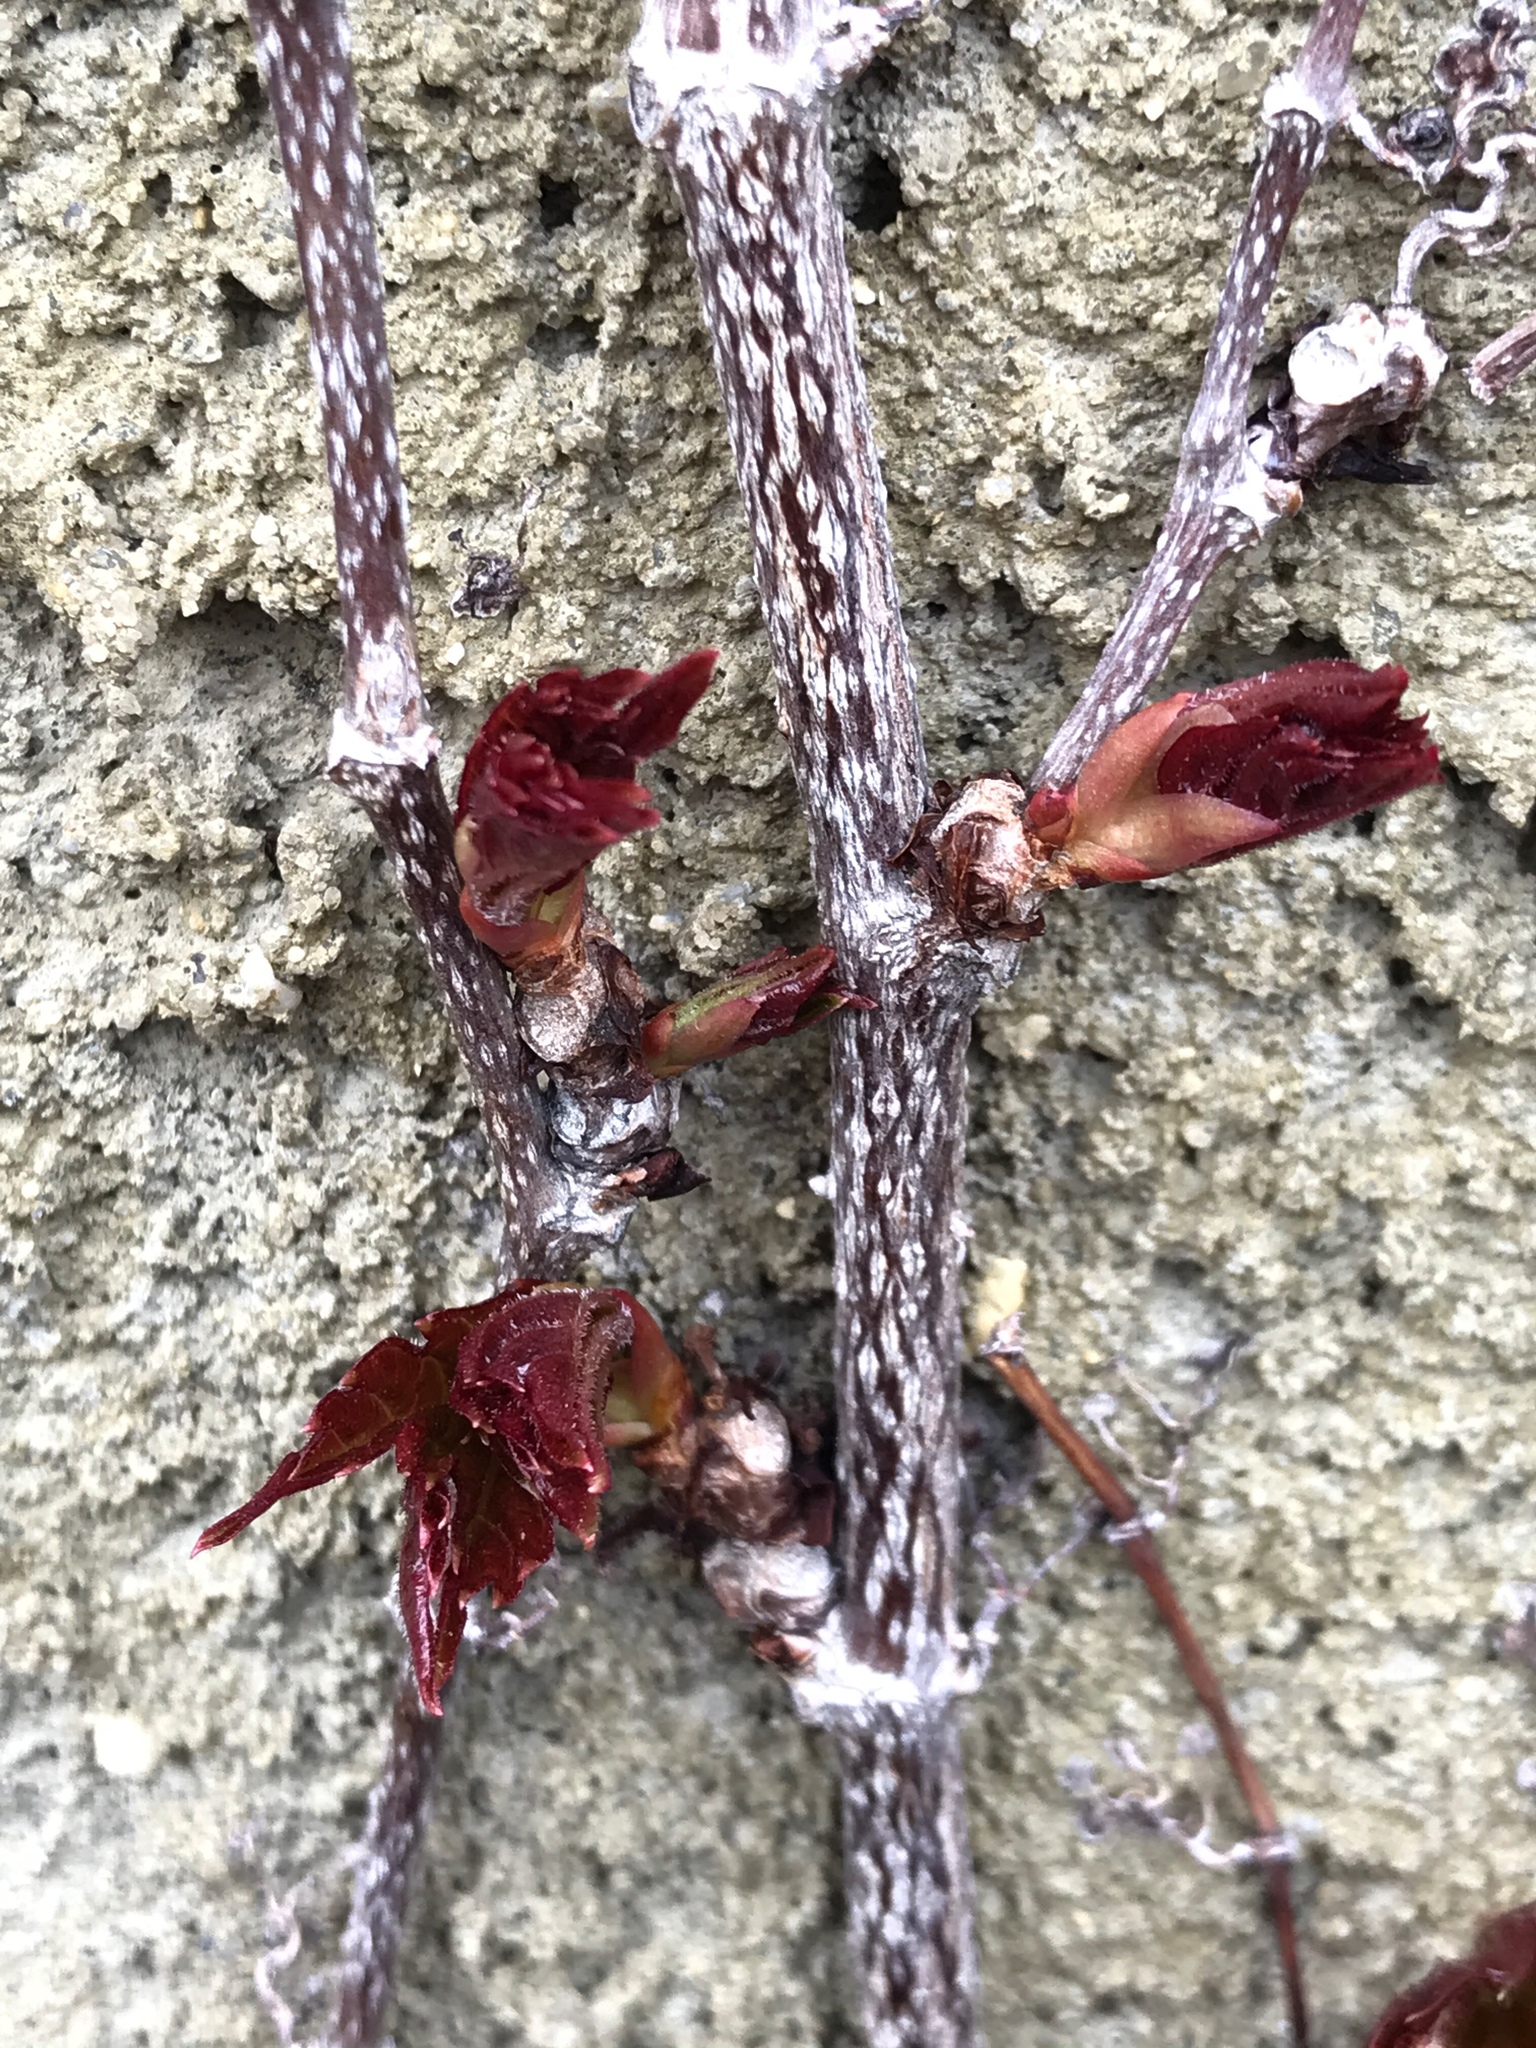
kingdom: Plantae
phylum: Tracheophyta
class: Magnoliopsida
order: Vitales
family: Vitaceae
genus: Parthenocissus
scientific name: Parthenocissus tricuspidata
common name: Boston ivy
